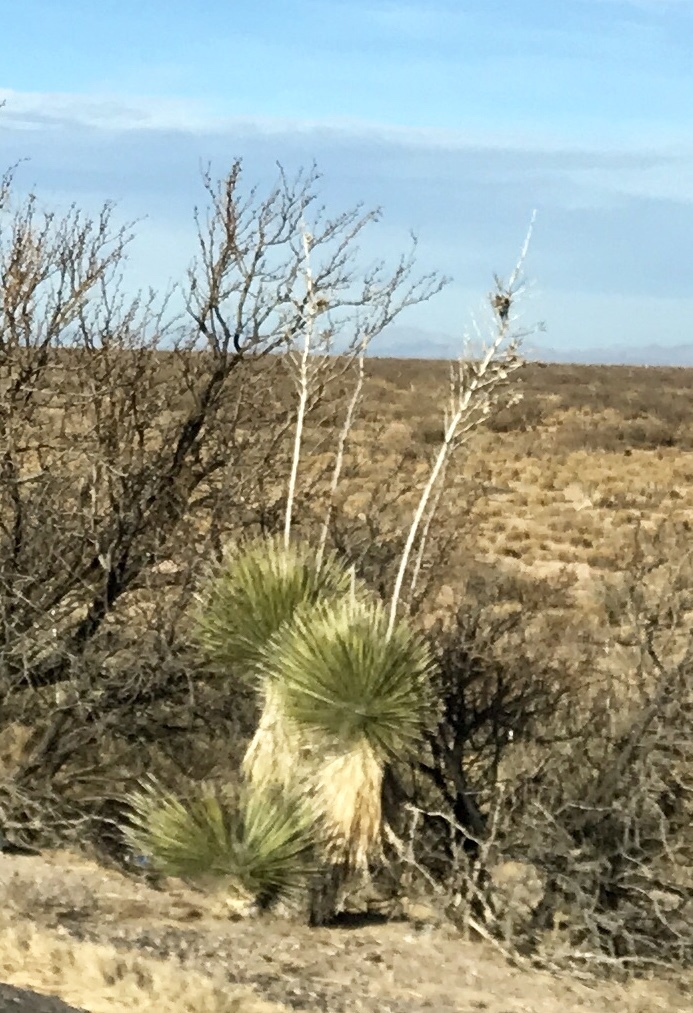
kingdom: Plantae
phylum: Tracheophyta
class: Liliopsida
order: Asparagales
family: Asparagaceae
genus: Yucca
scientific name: Yucca elata
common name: Palmella
